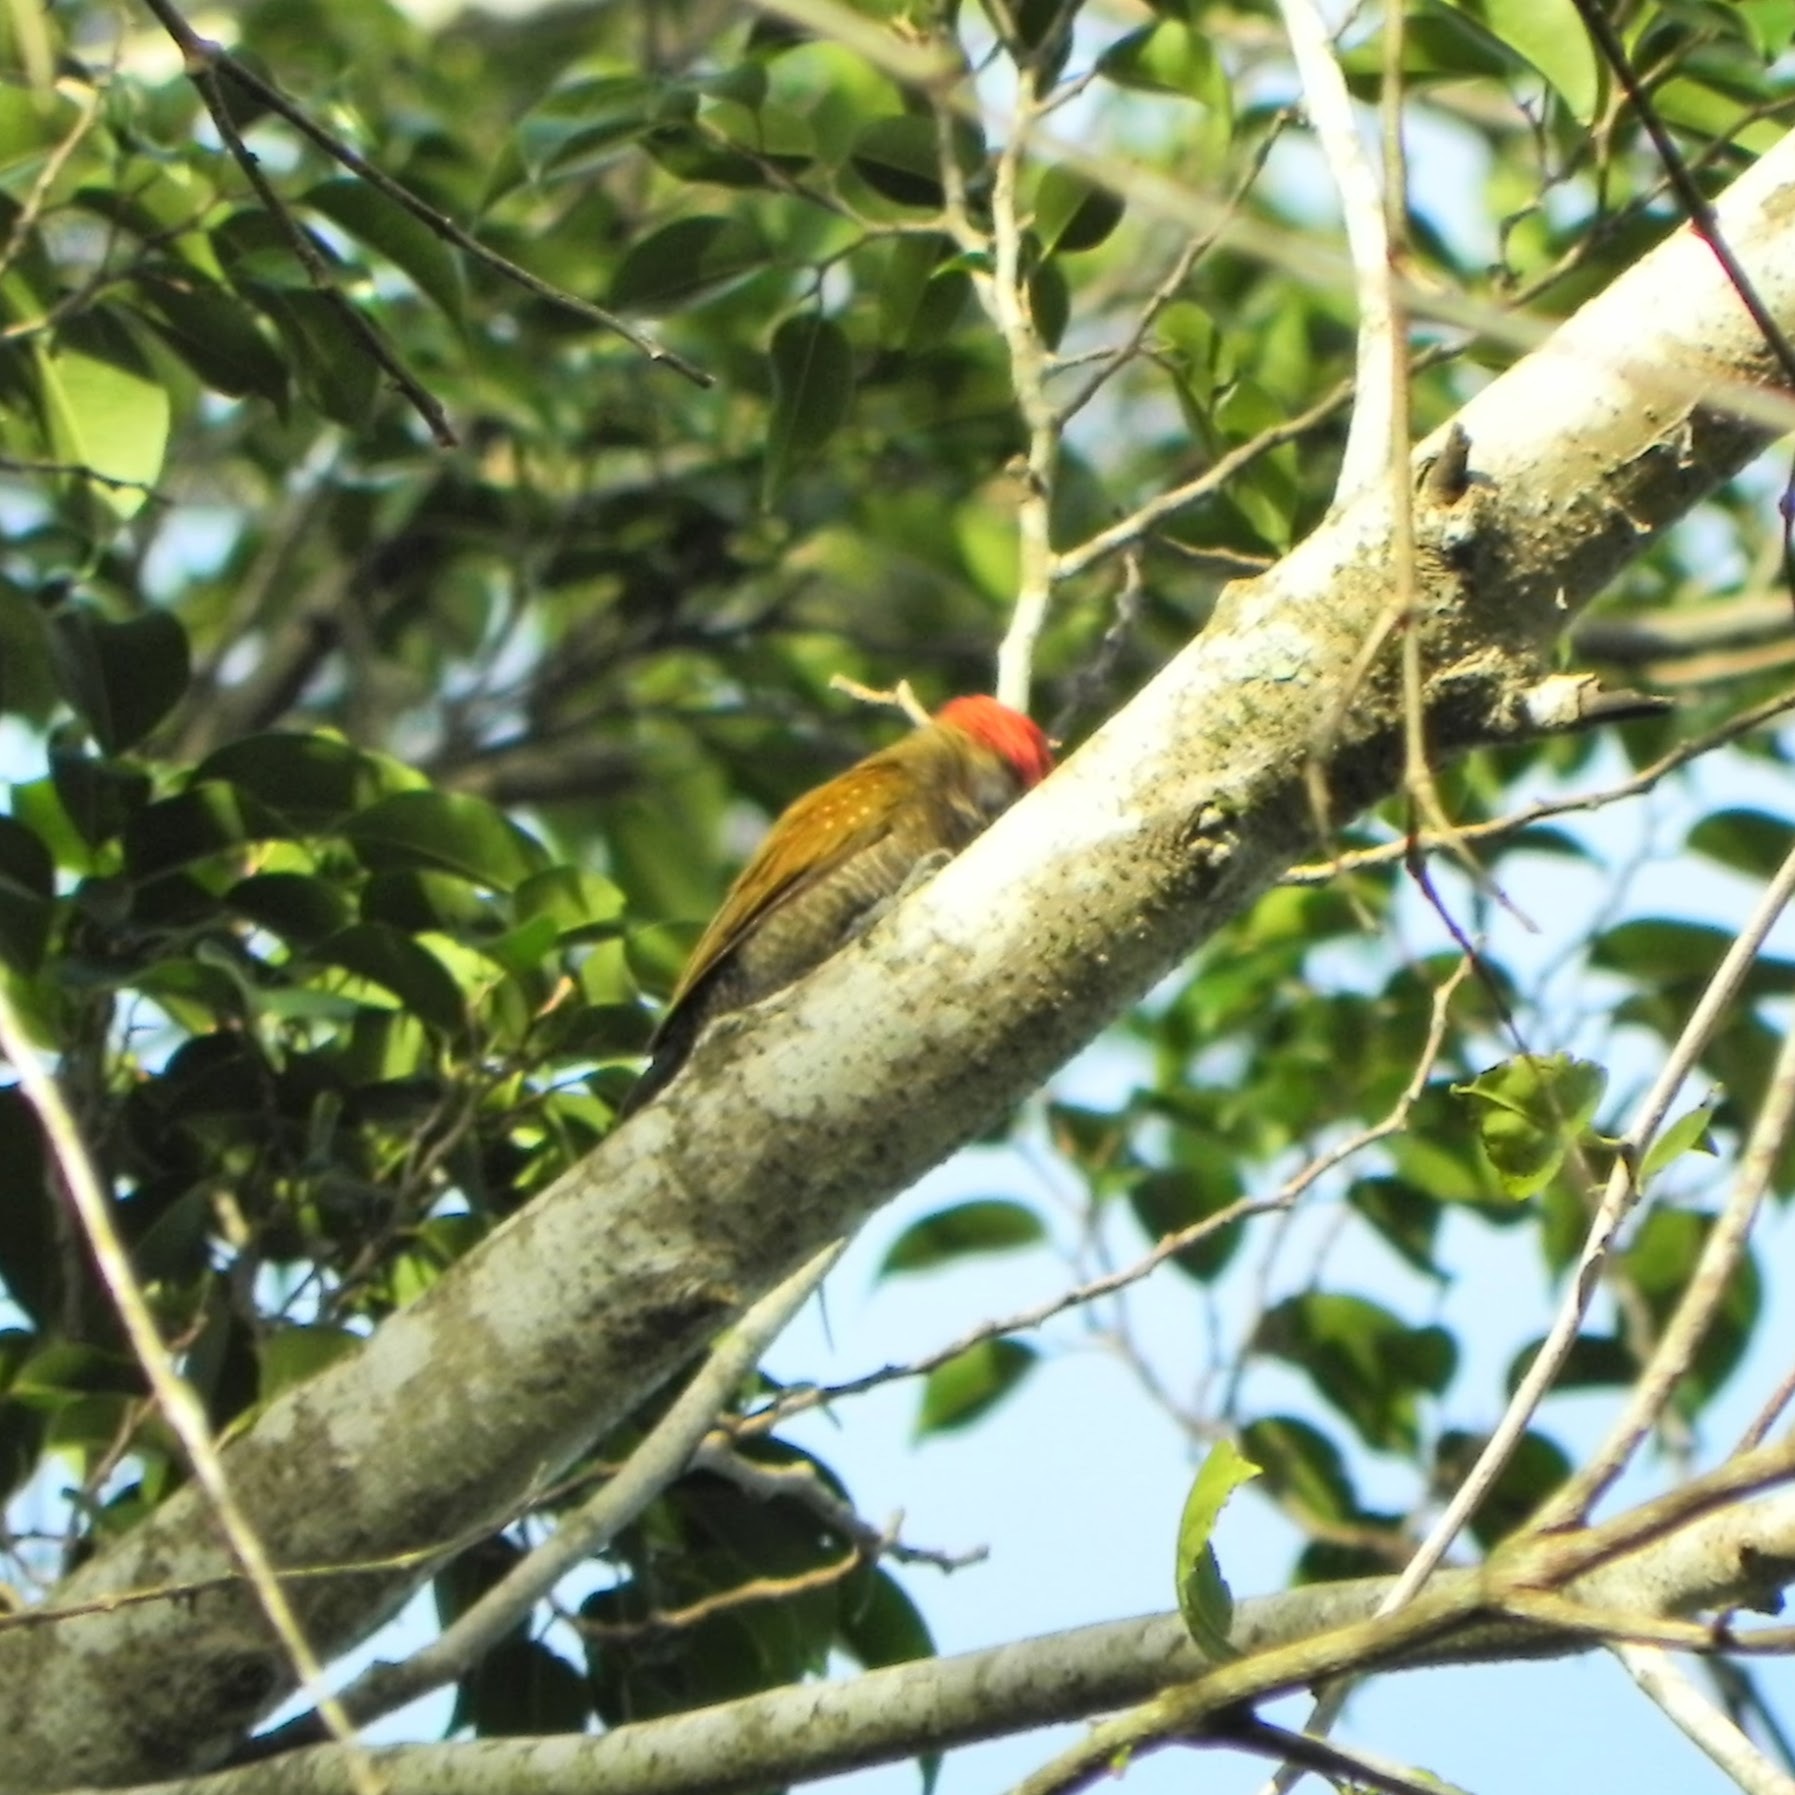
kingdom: Animalia
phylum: Chordata
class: Aves
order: Piciformes
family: Picidae
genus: Veniliornis
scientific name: Veniliornis passerinus
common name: Little woodpecker
